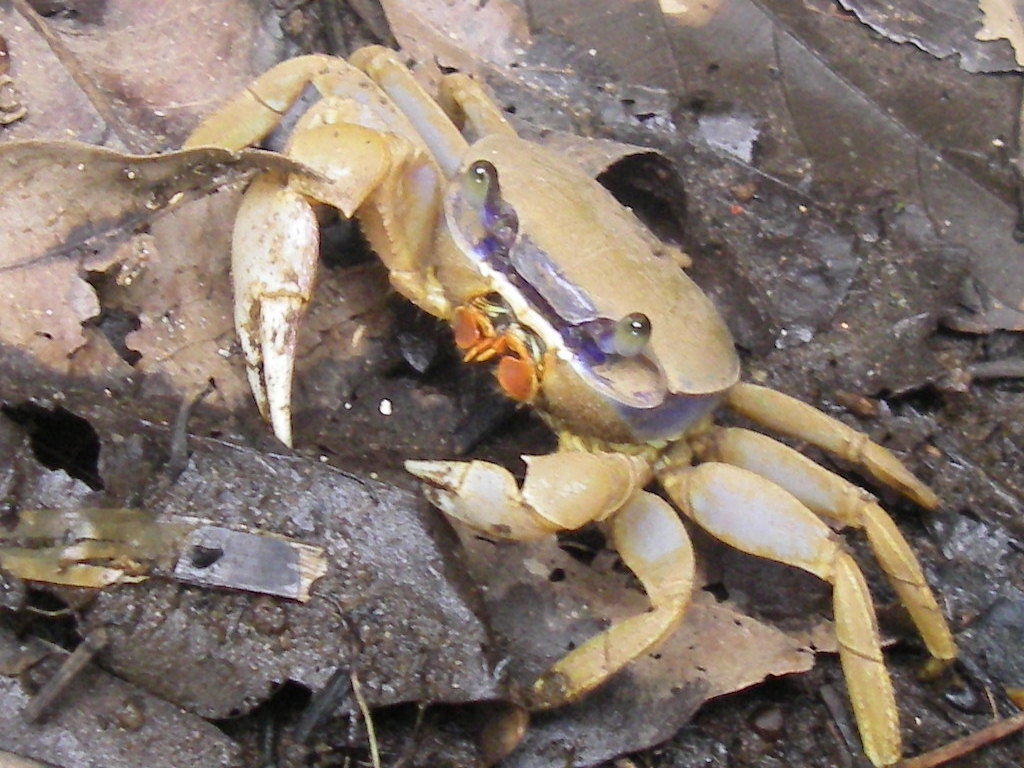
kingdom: Animalia
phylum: Arthropoda
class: Malacostraca
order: Decapoda
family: Gecarcinidae
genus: Cardisoma
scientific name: Cardisoma guanhumi
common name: Great land crab
